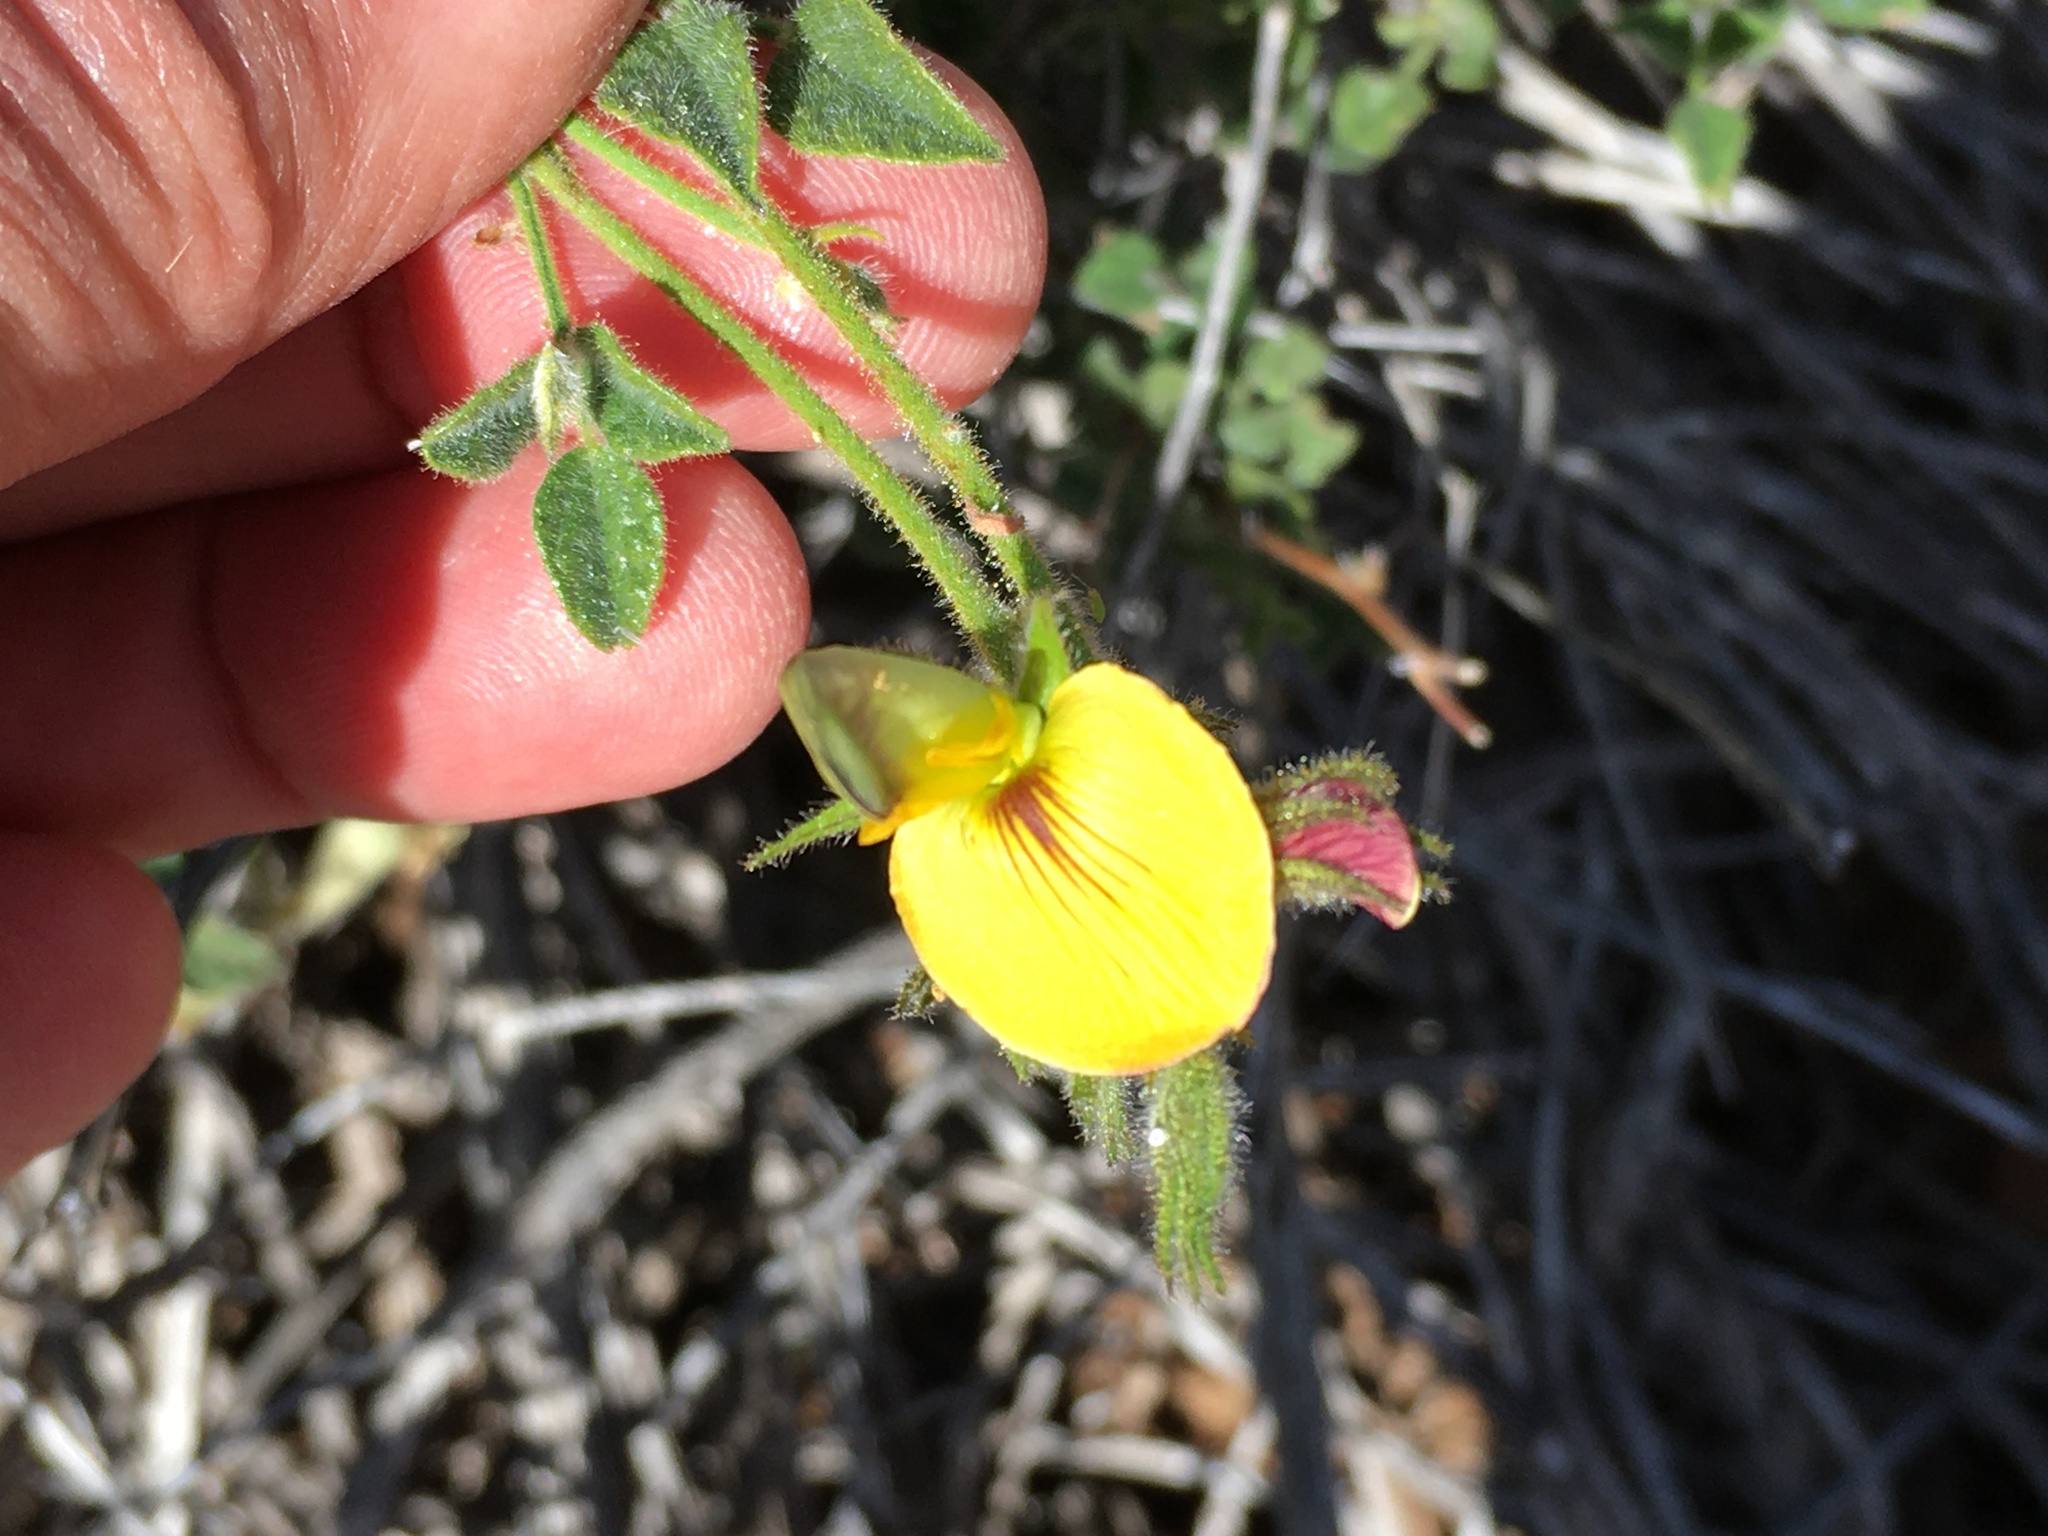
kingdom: Plantae
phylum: Tracheophyta
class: Magnoliopsida
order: Fabales
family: Fabaceae
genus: Rhynchosia
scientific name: Rhynchosia schlechteri
